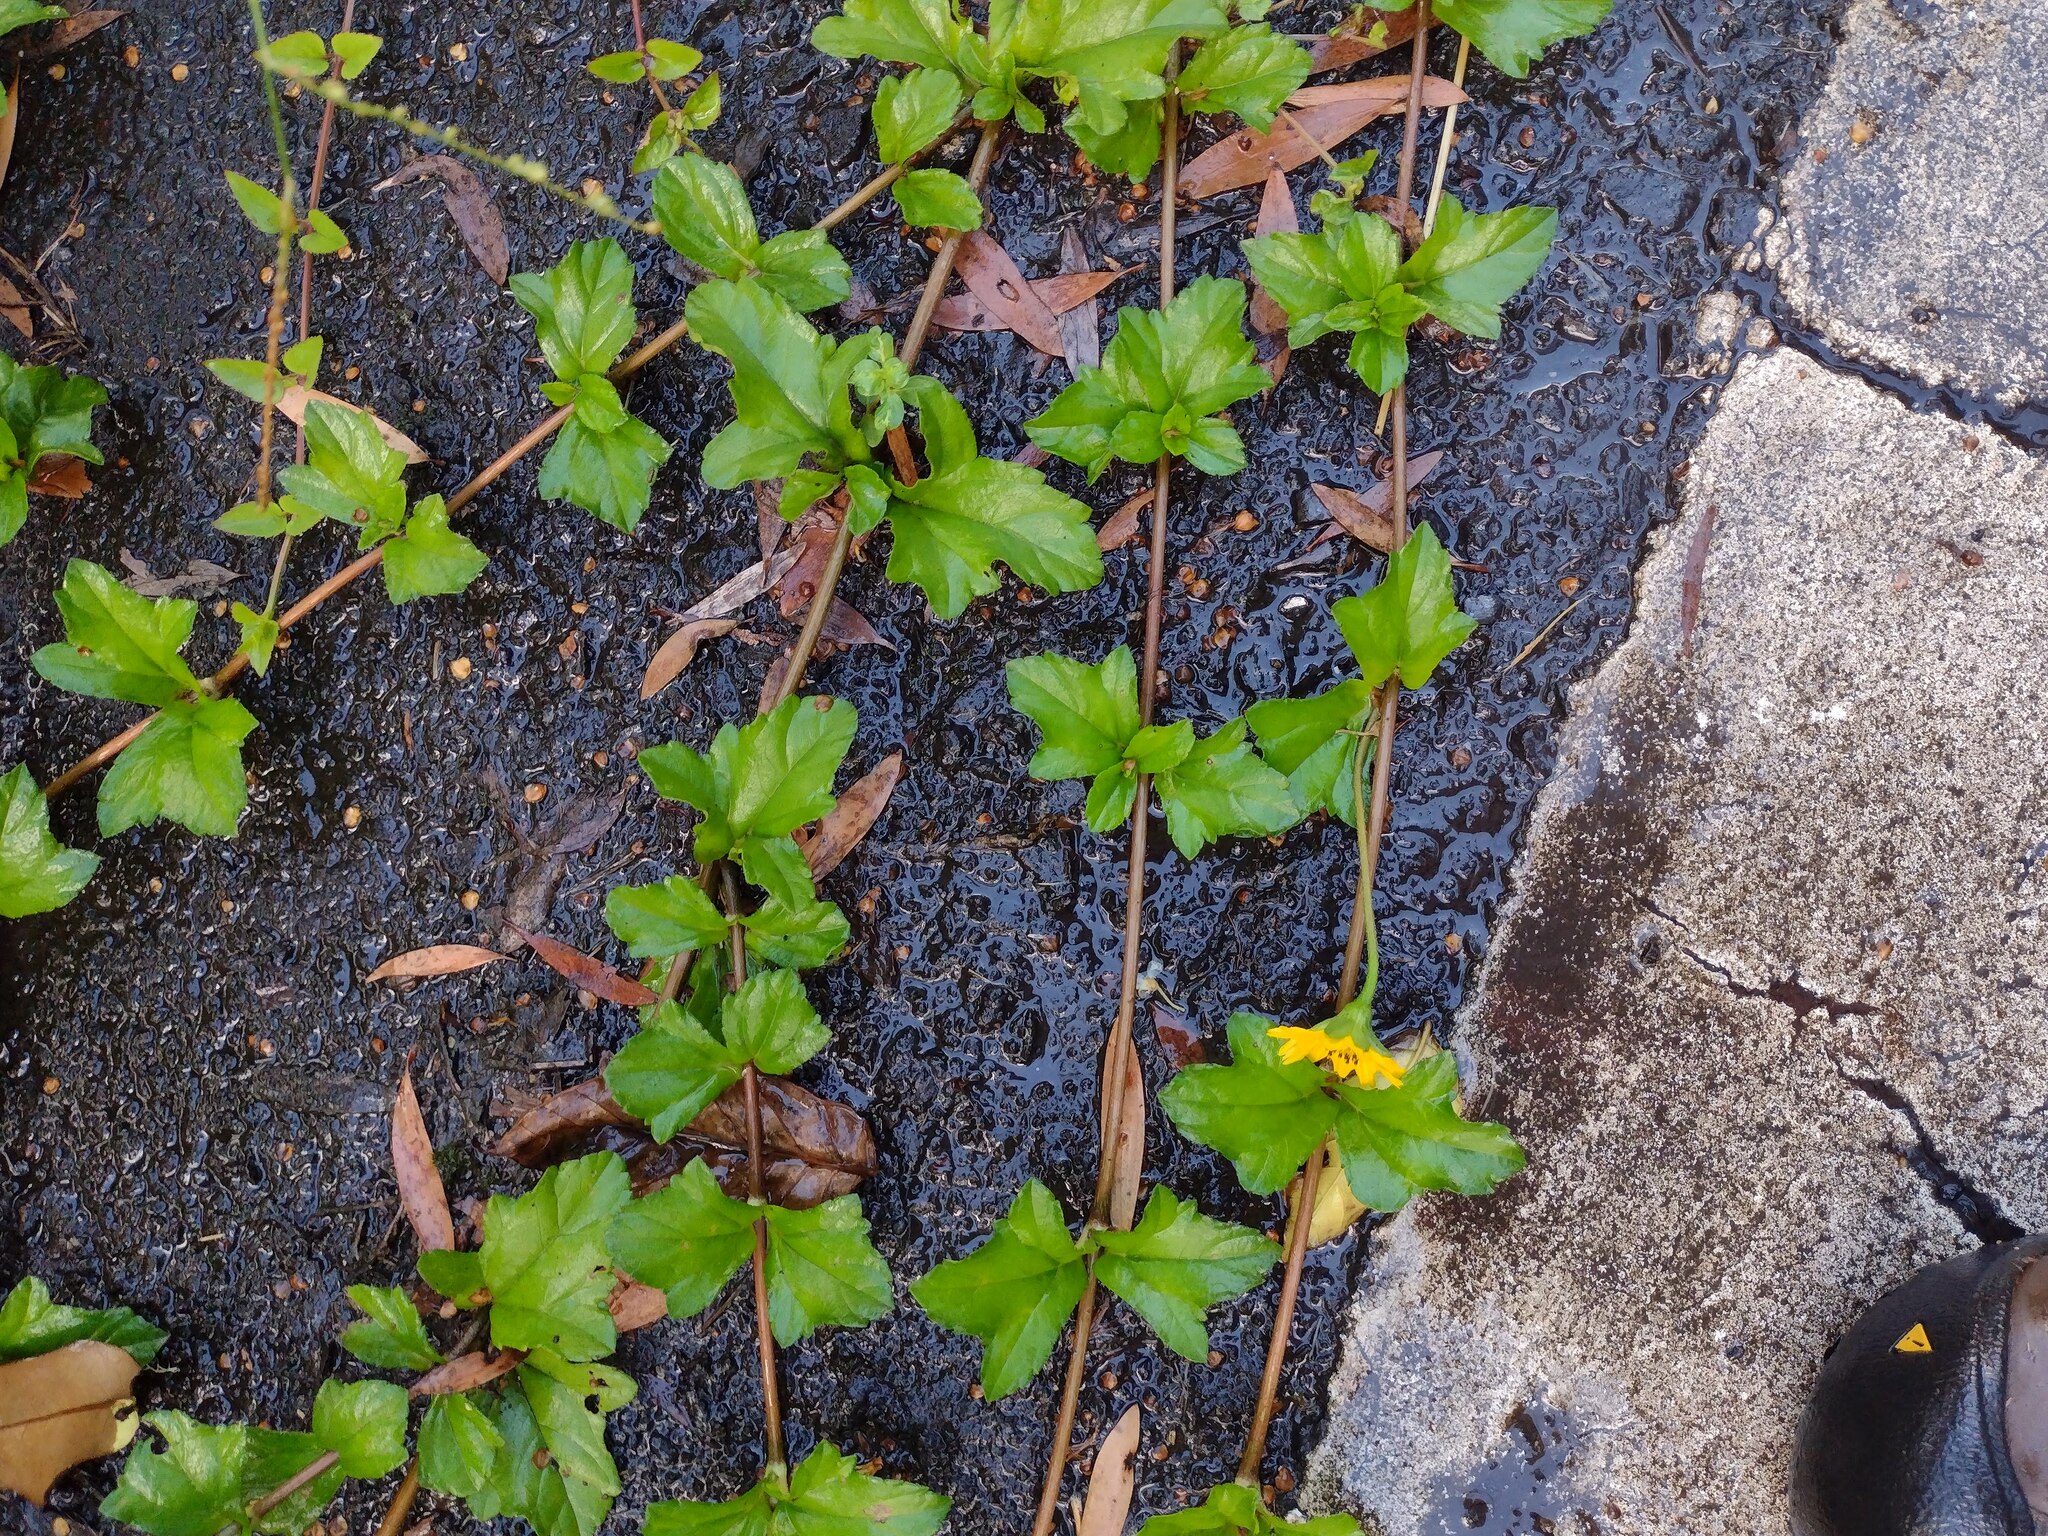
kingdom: Plantae
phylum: Tracheophyta
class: Magnoliopsida
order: Asterales
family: Asteraceae
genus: Sphagneticola
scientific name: Sphagneticola trilobata
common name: Bay biscayne creeping-oxeye
